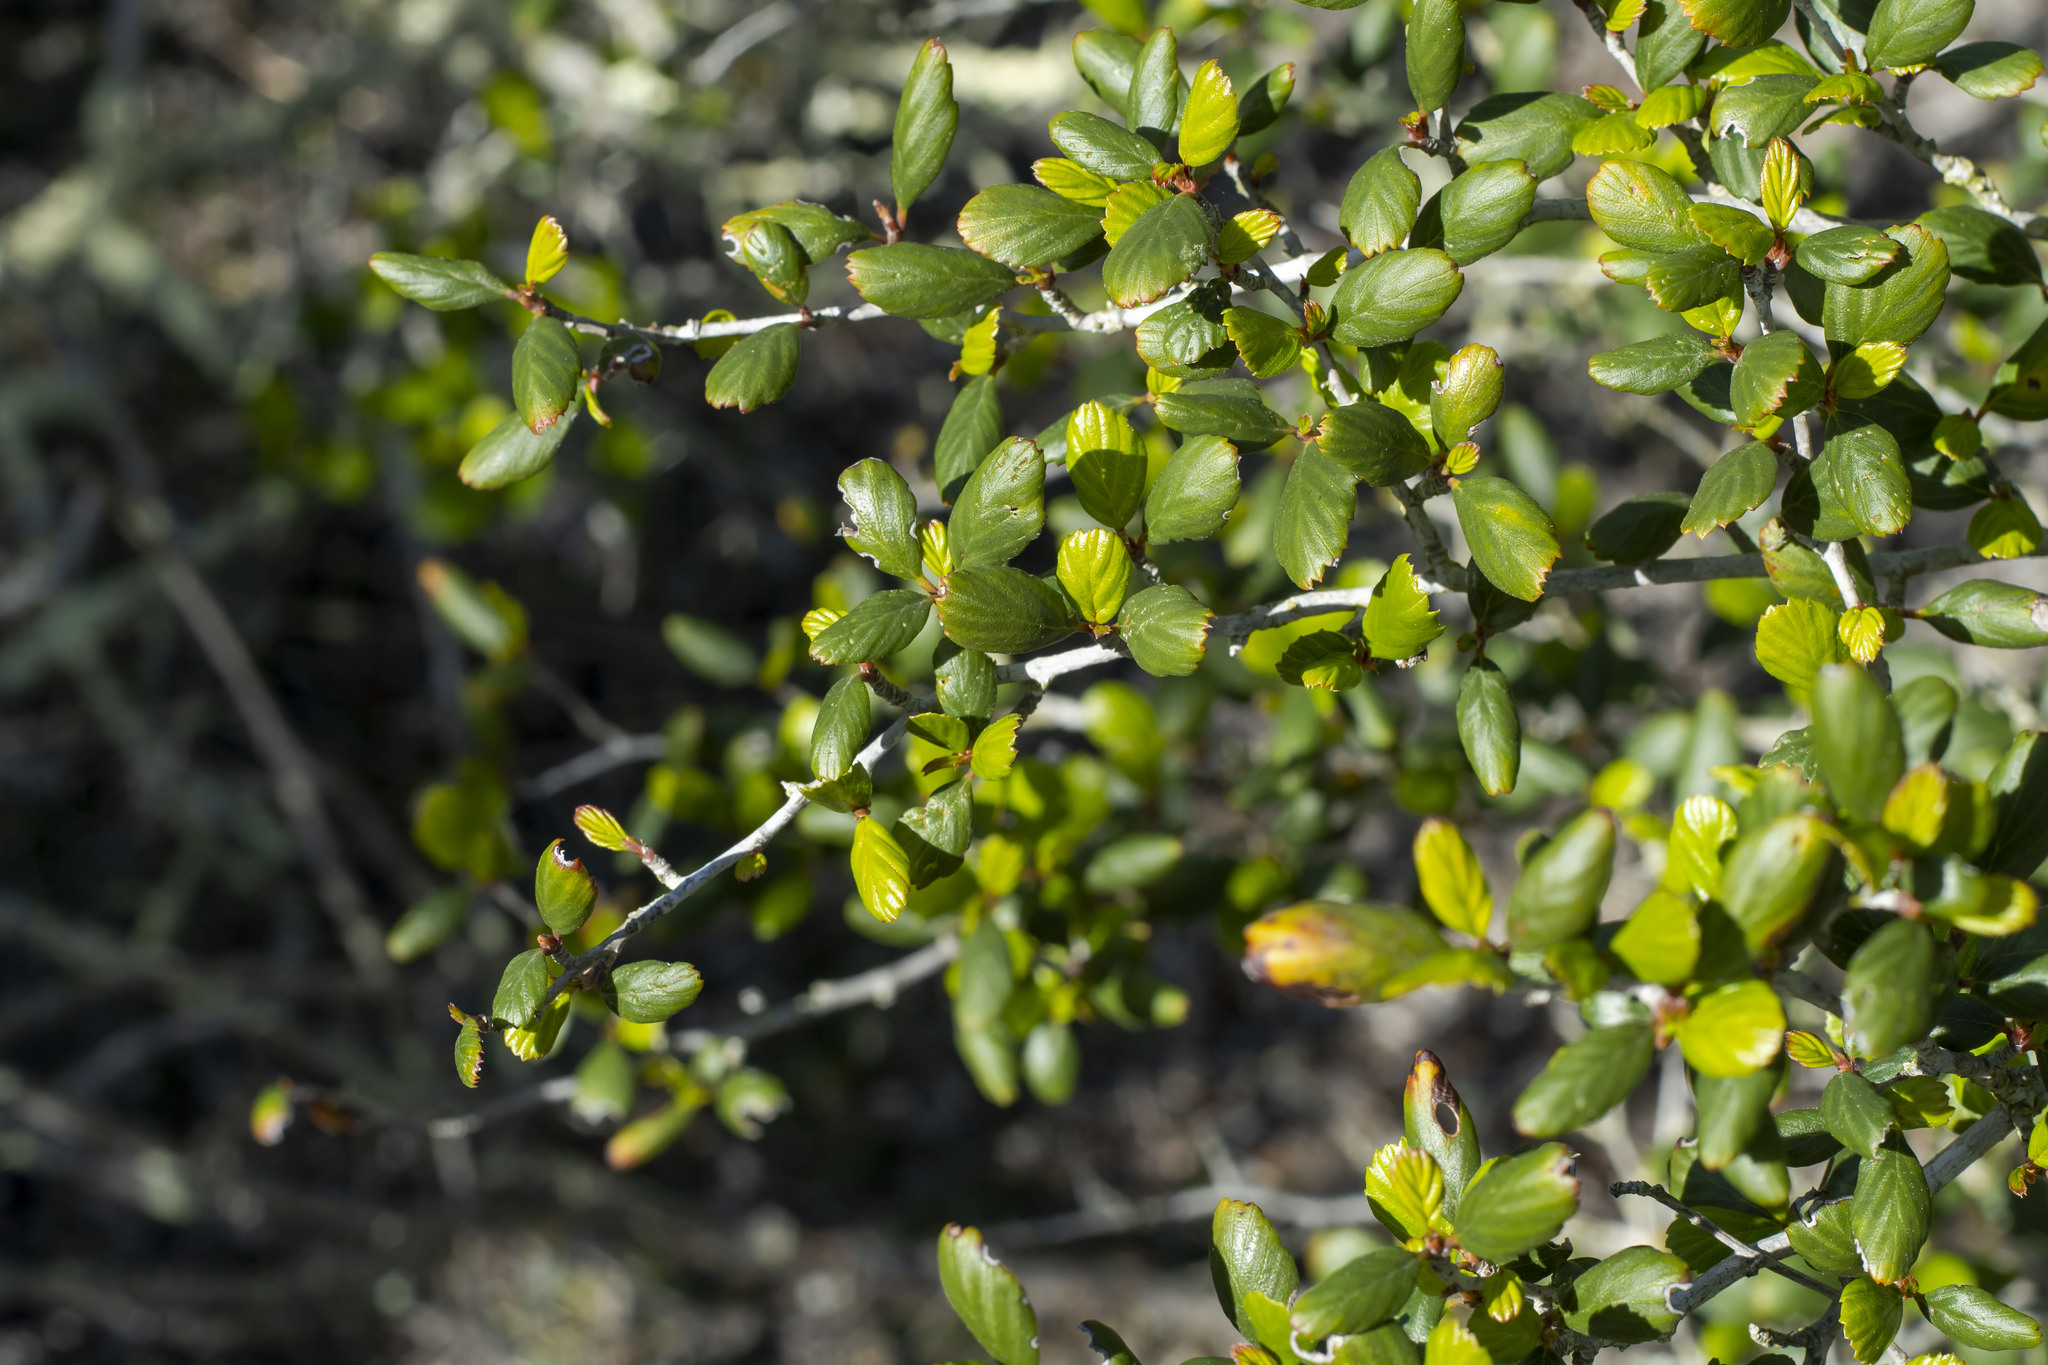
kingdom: Plantae
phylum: Tracheophyta
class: Magnoliopsida
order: Rosales
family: Rosaceae
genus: Cercocarpus
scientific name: Cercocarpus montanus
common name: Alder-leaf cercocarpus
